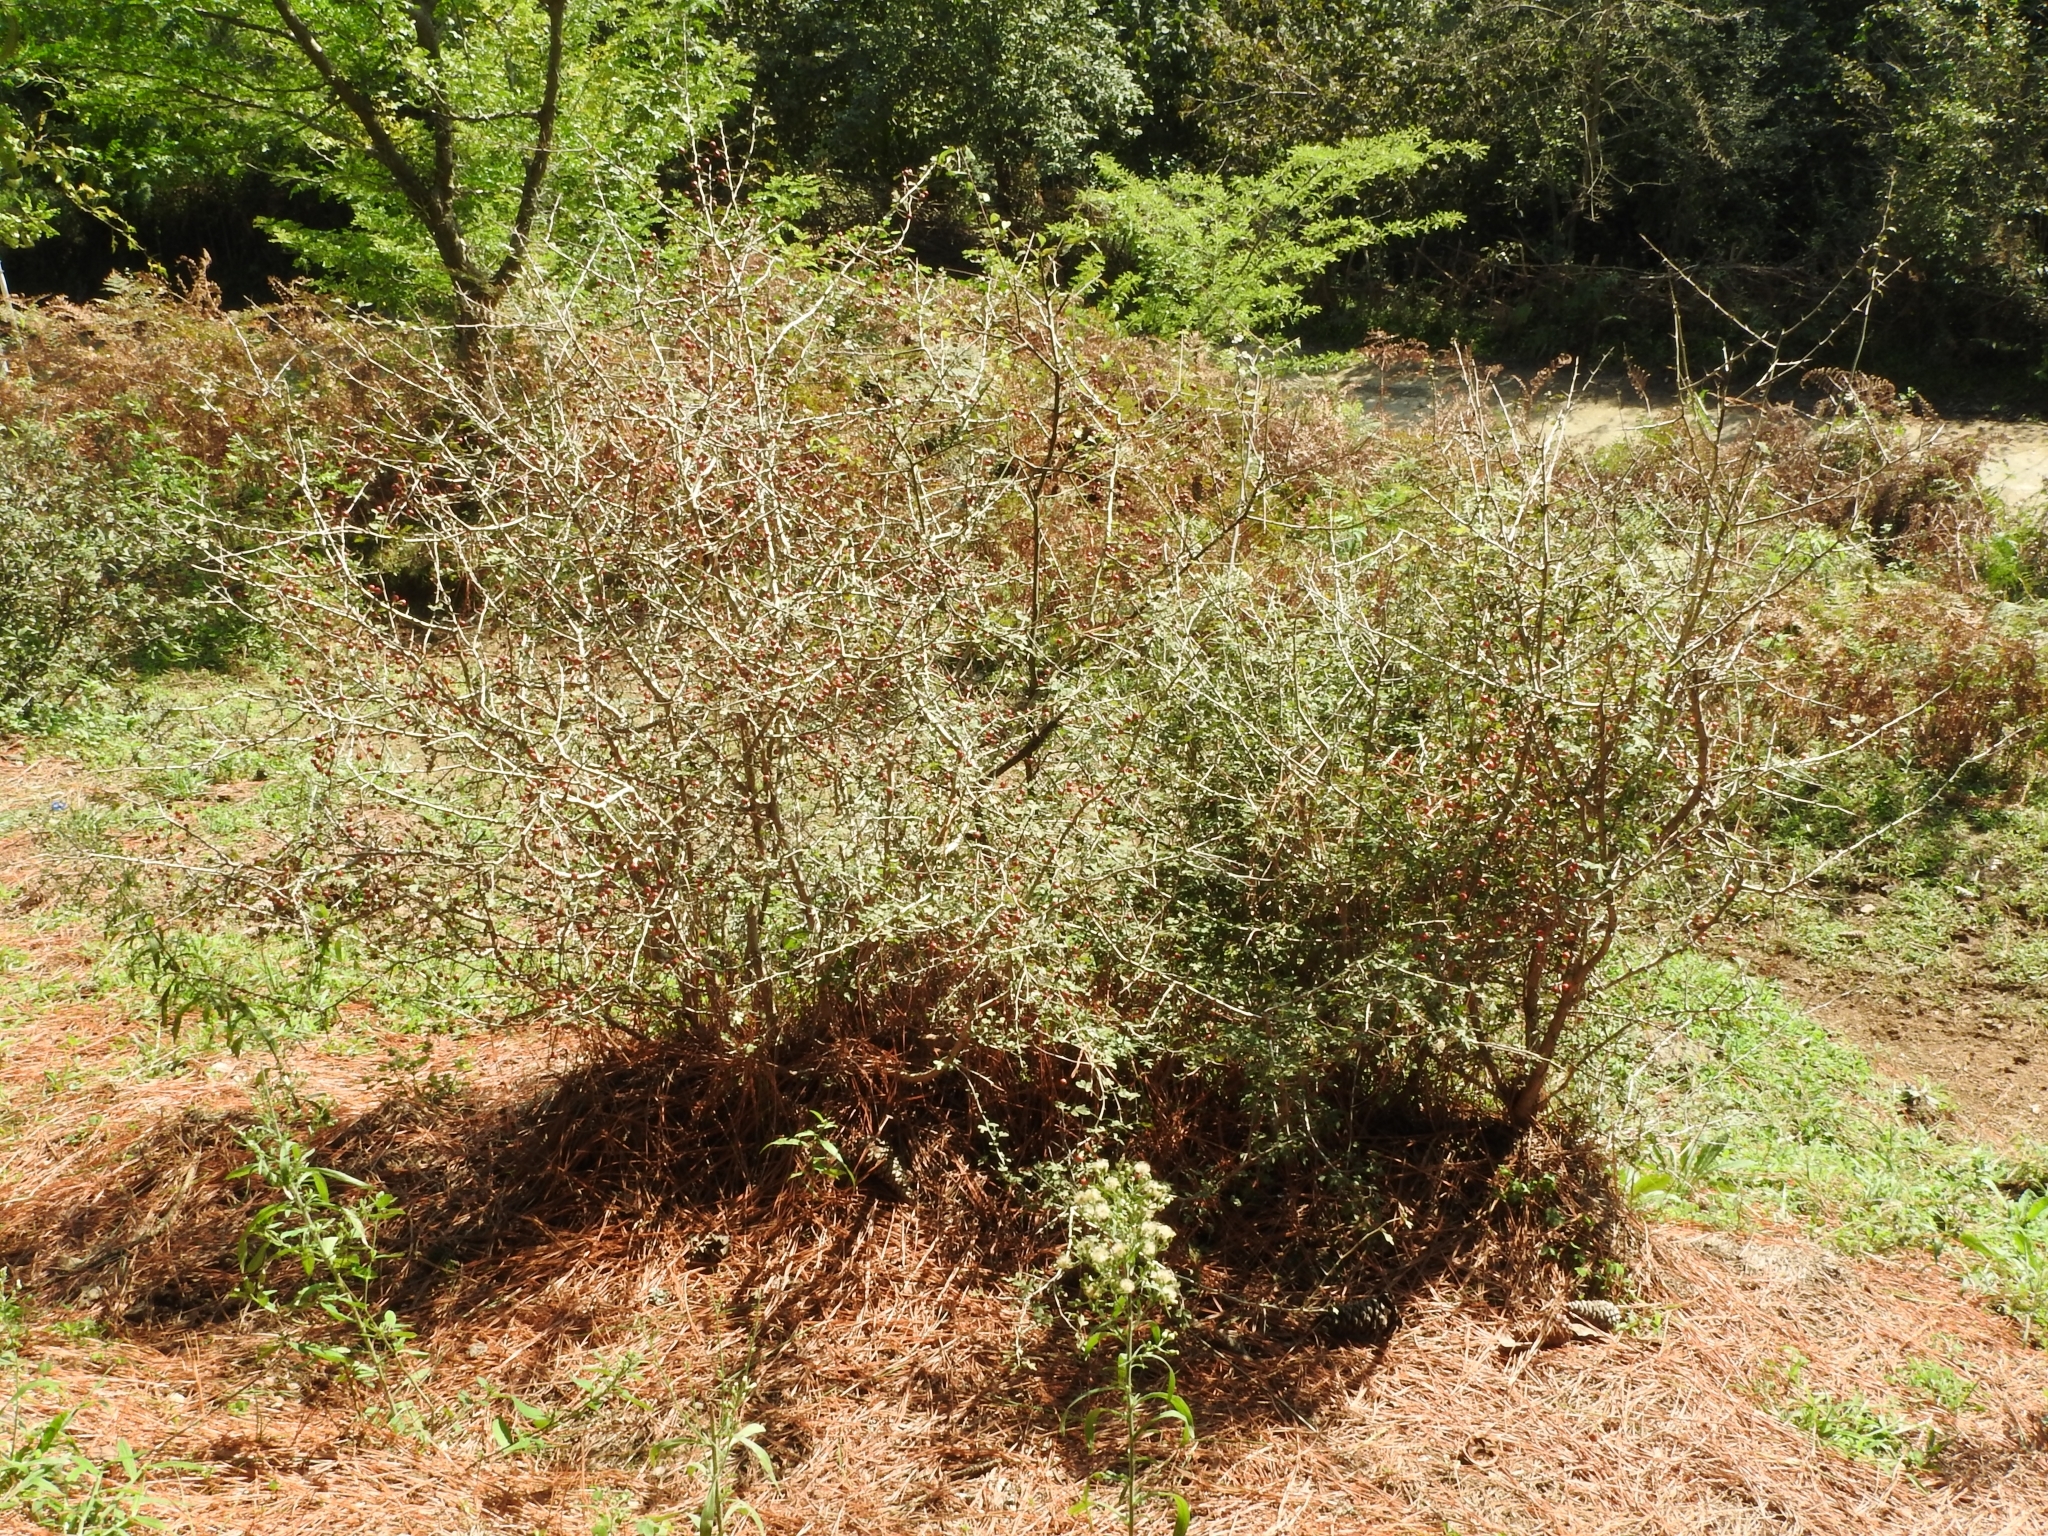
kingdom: Plantae
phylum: Tracheophyta
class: Magnoliopsida
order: Rosales
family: Rosaceae
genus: Crataegus
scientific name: Crataegus microphylla
